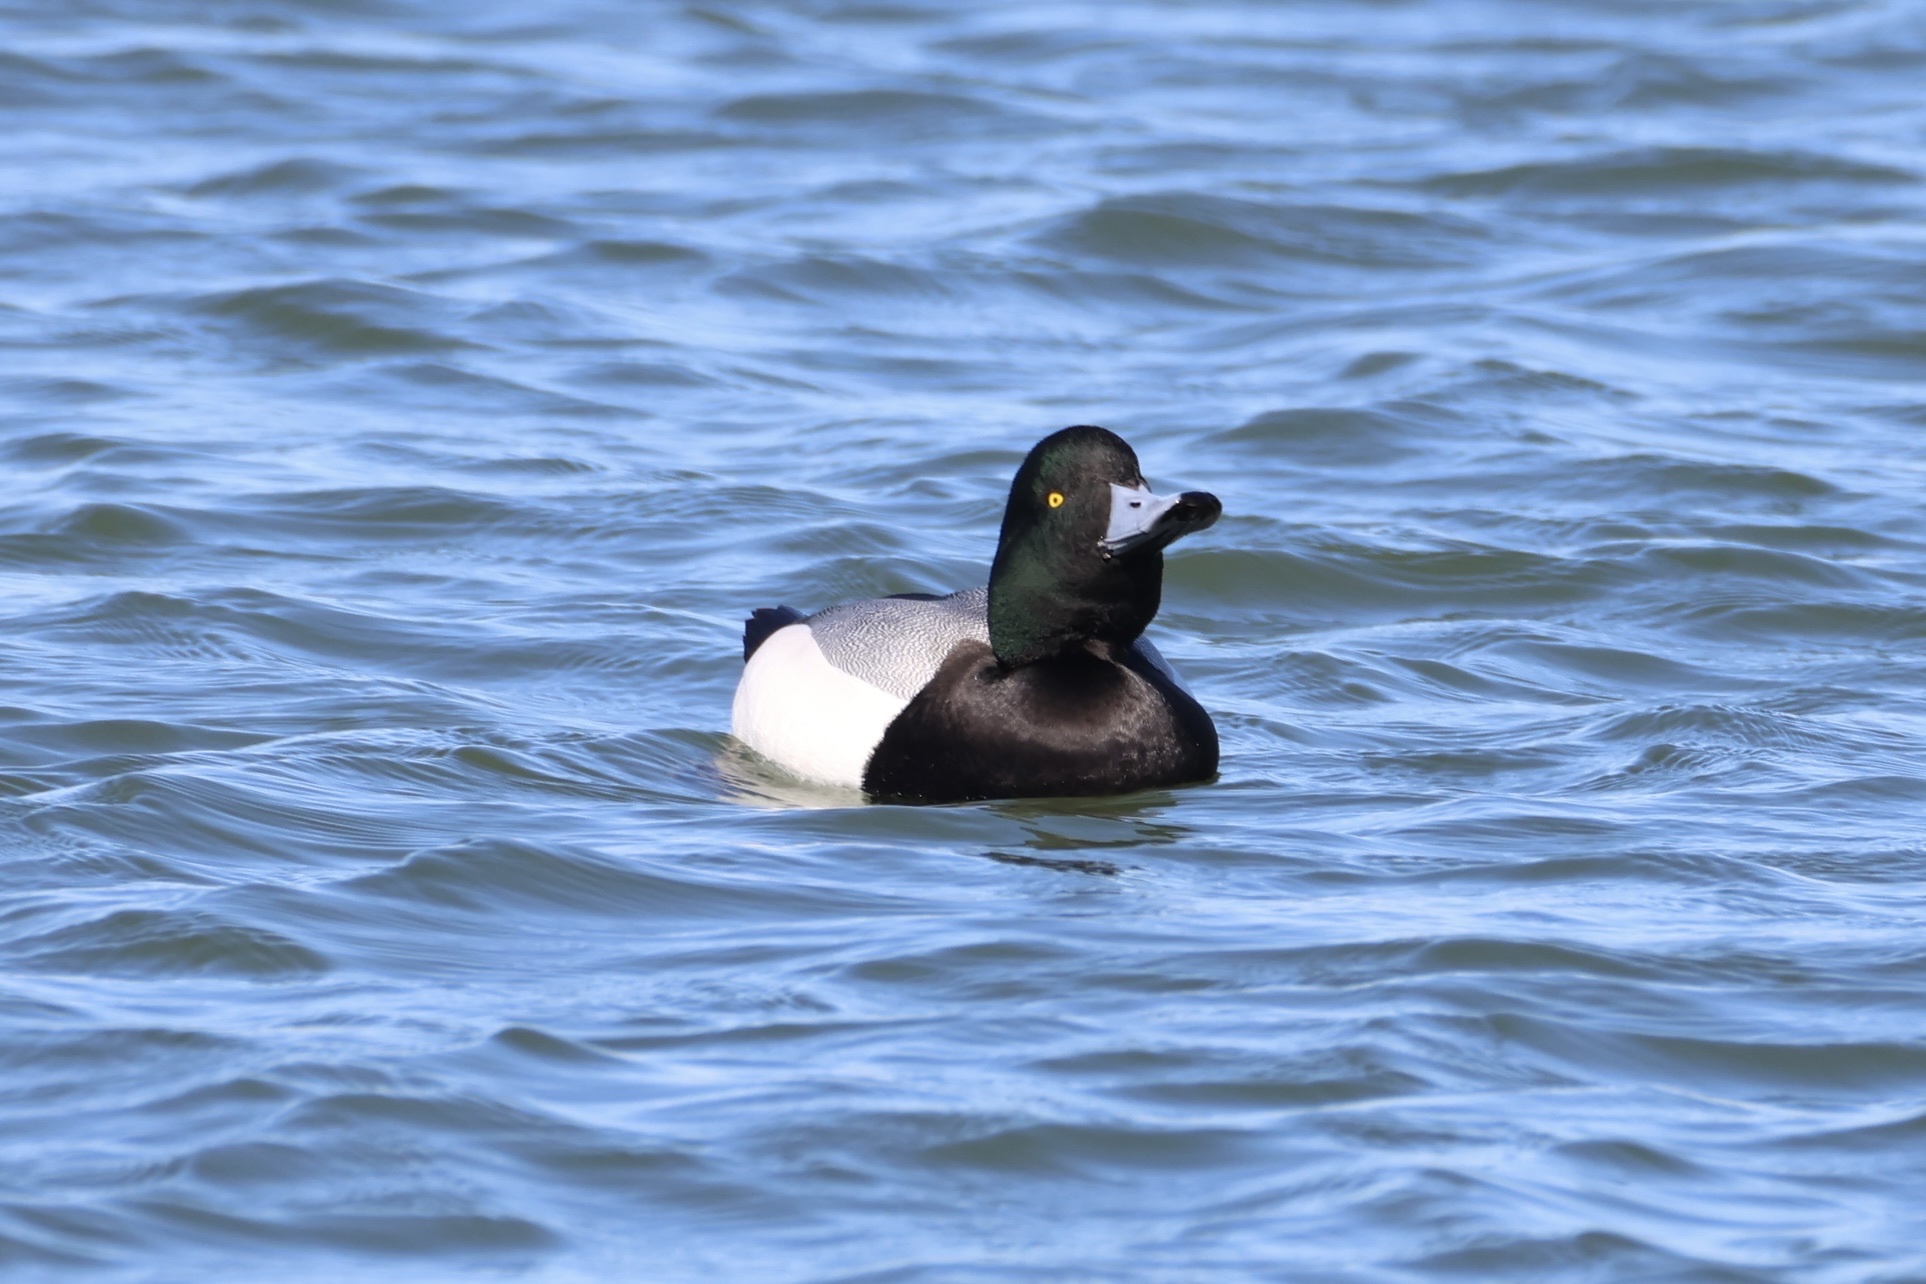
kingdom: Animalia
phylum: Chordata
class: Aves
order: Anseriformes
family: Anatidae
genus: Aythya
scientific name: Aythya marila
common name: Greater scaup
